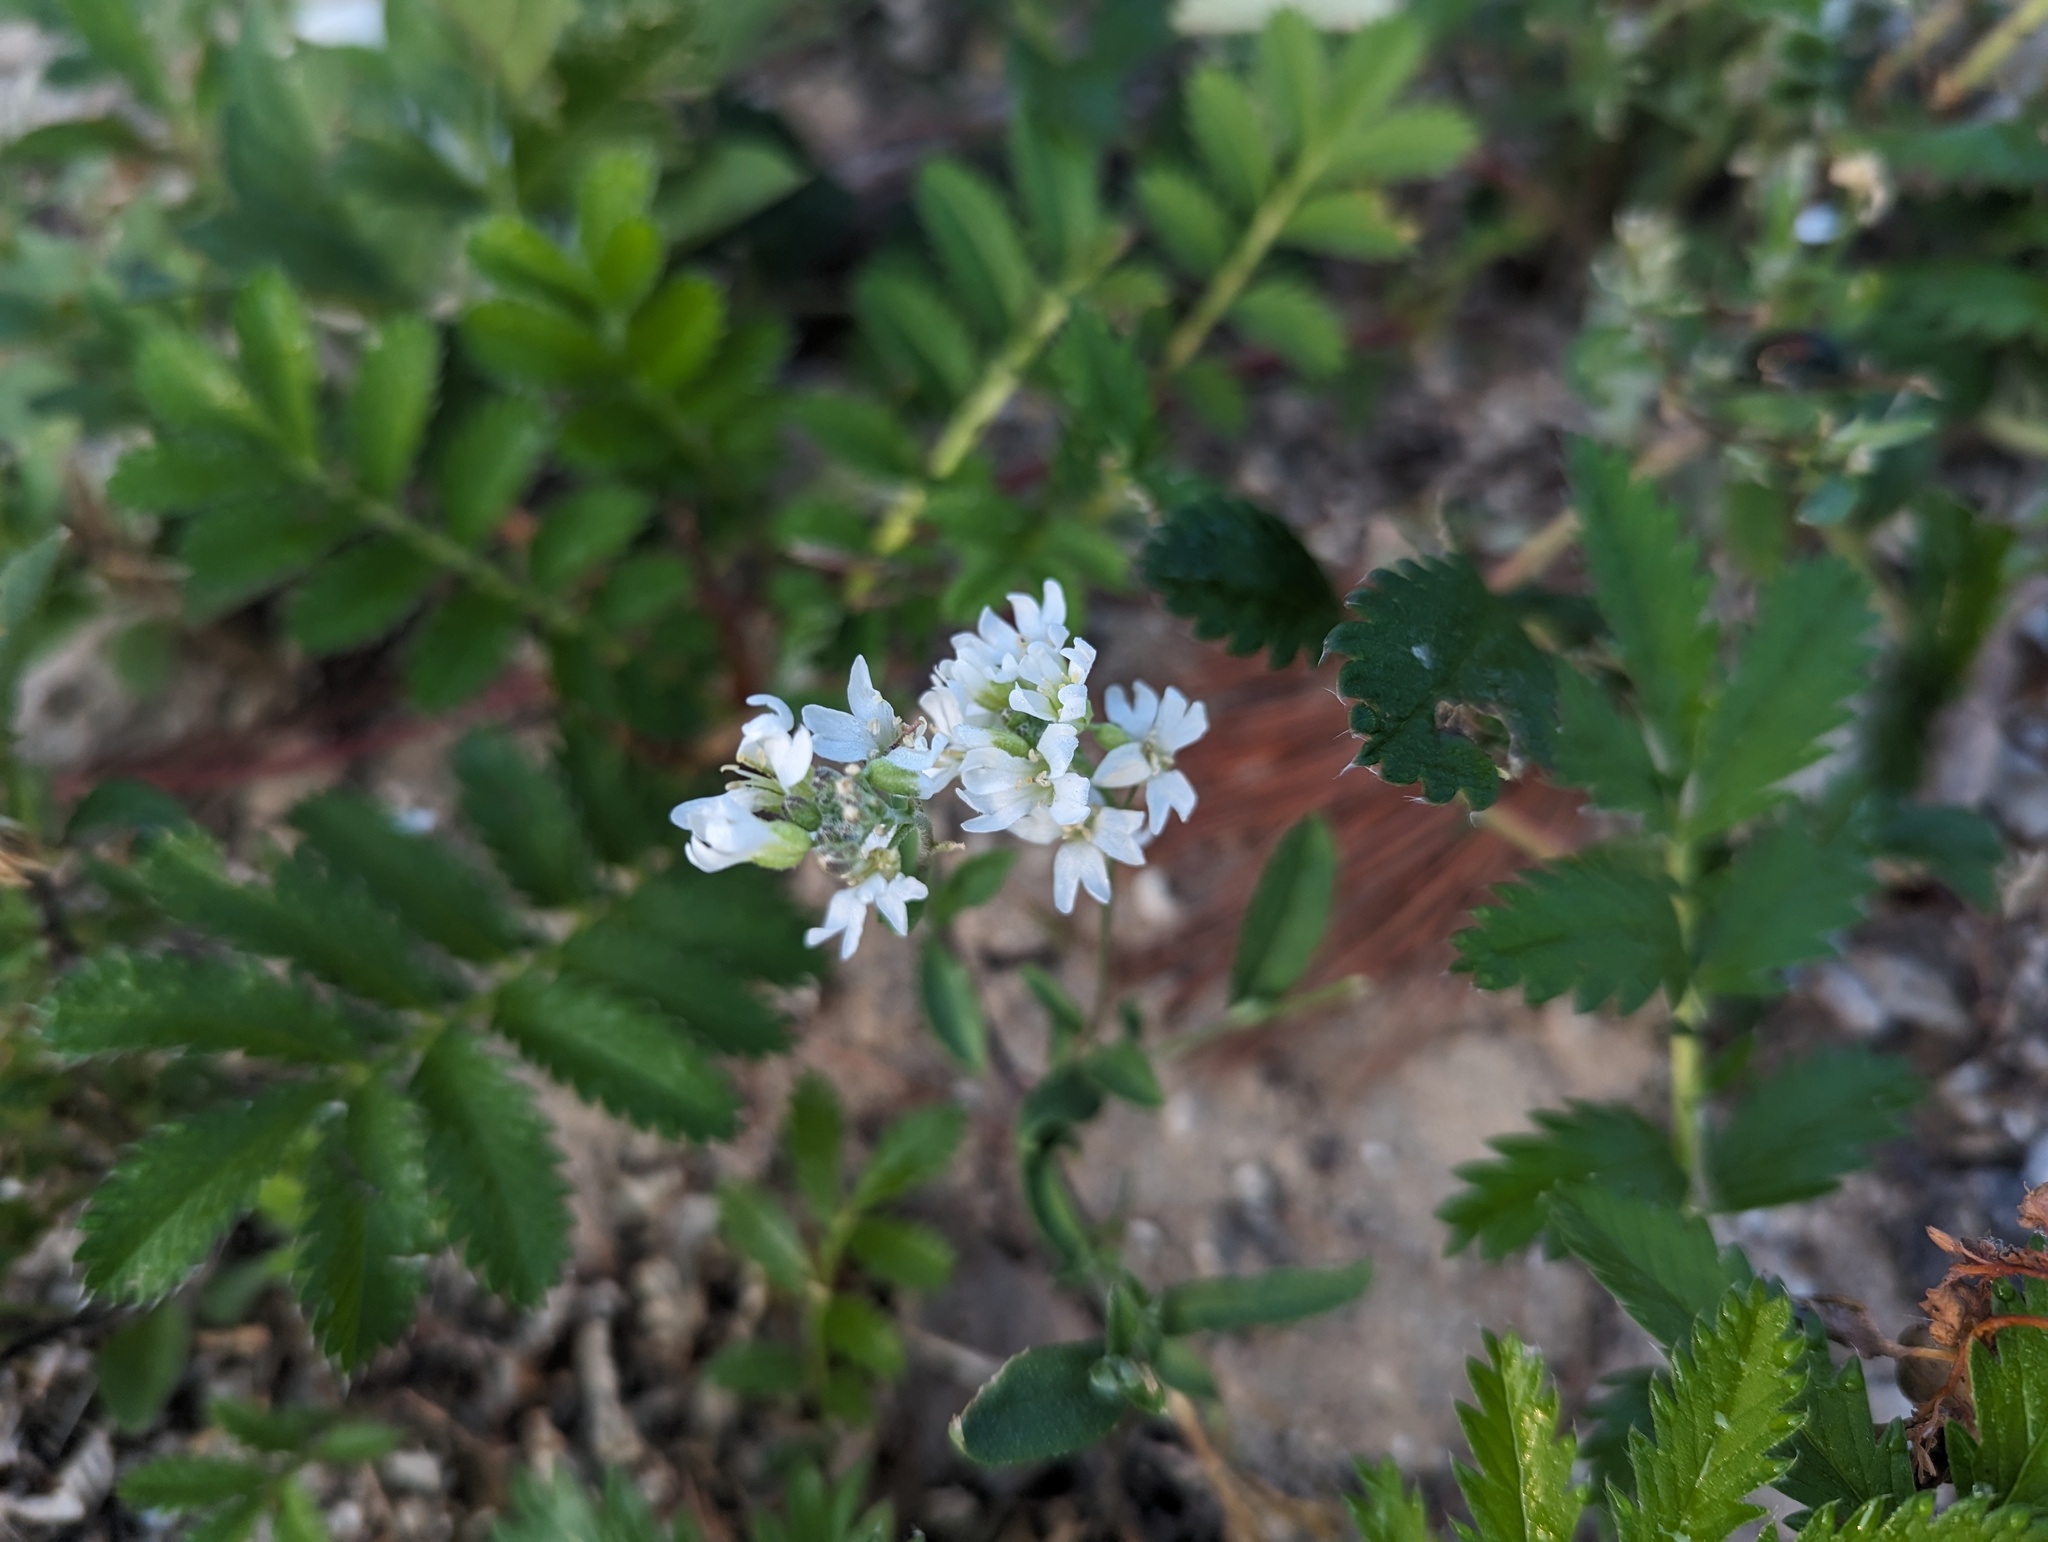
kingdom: Plantae
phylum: Tracheophyta
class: Magnoliopsida
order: Brassicales
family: Brassicaceae
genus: Berteroa
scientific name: Berteroa incana
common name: Hoary alison
